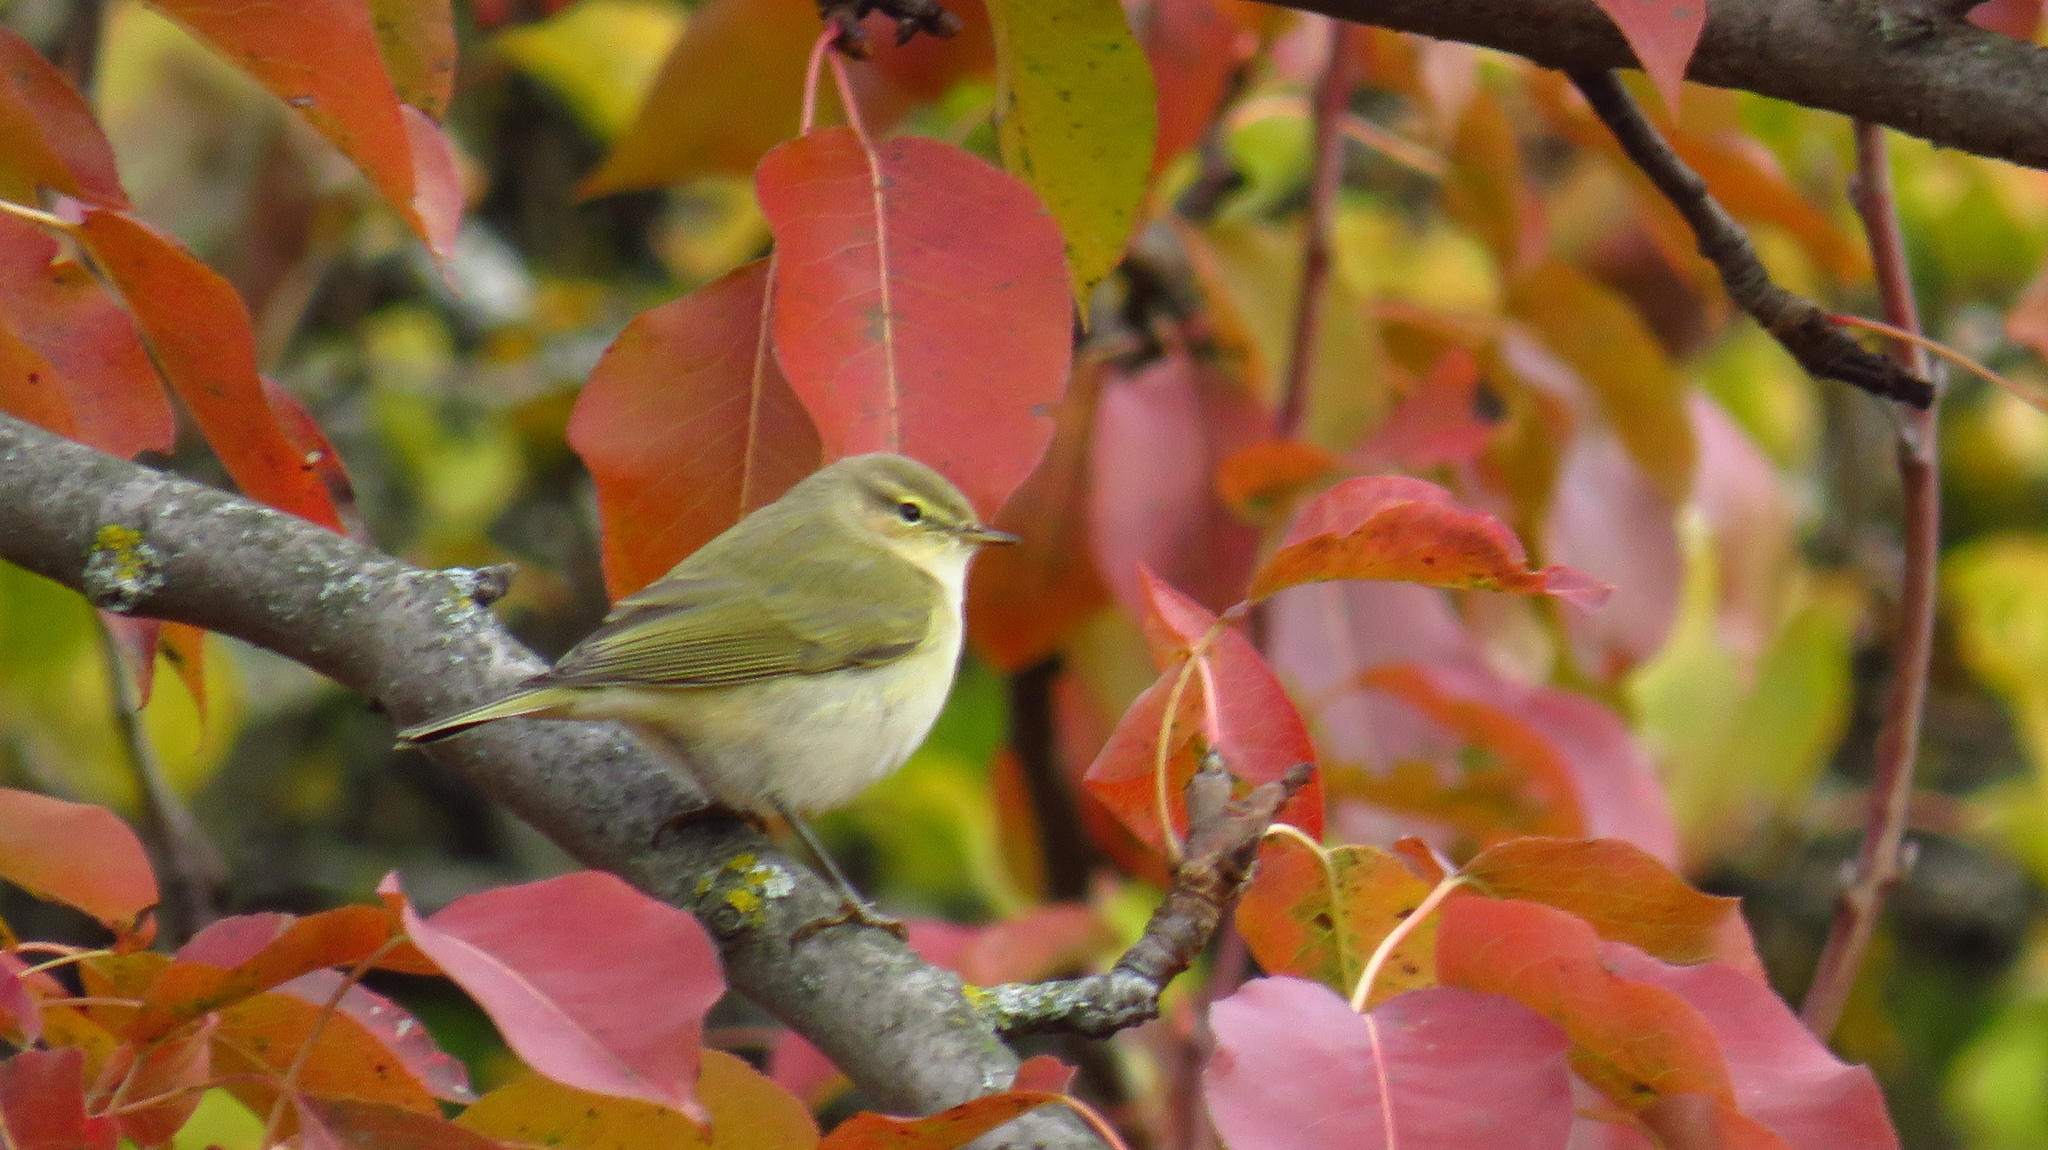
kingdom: Animalia
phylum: Chordata
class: Aves
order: Passeriformes
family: Phylloscopidae
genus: Phylloscopus
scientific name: Phylloscopus collybita
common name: Common chiffchaff
